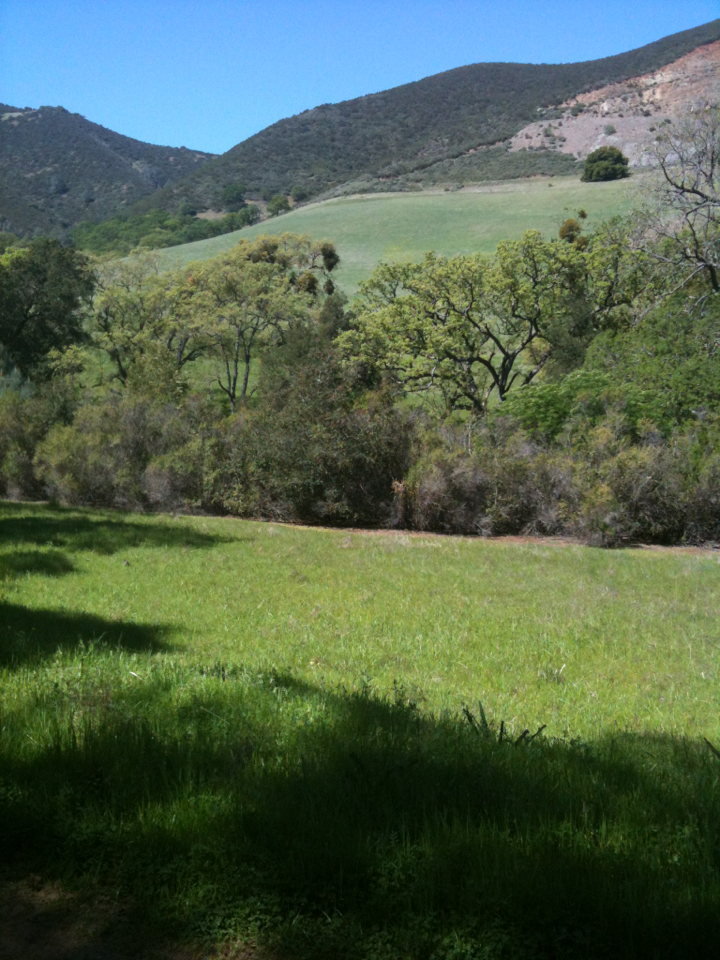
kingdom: Plantae
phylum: Tracheophyta
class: Magnoliopsida
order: Fagales
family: Fagaceae
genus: Quercus
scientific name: Quercus lobata
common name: Valley oak
